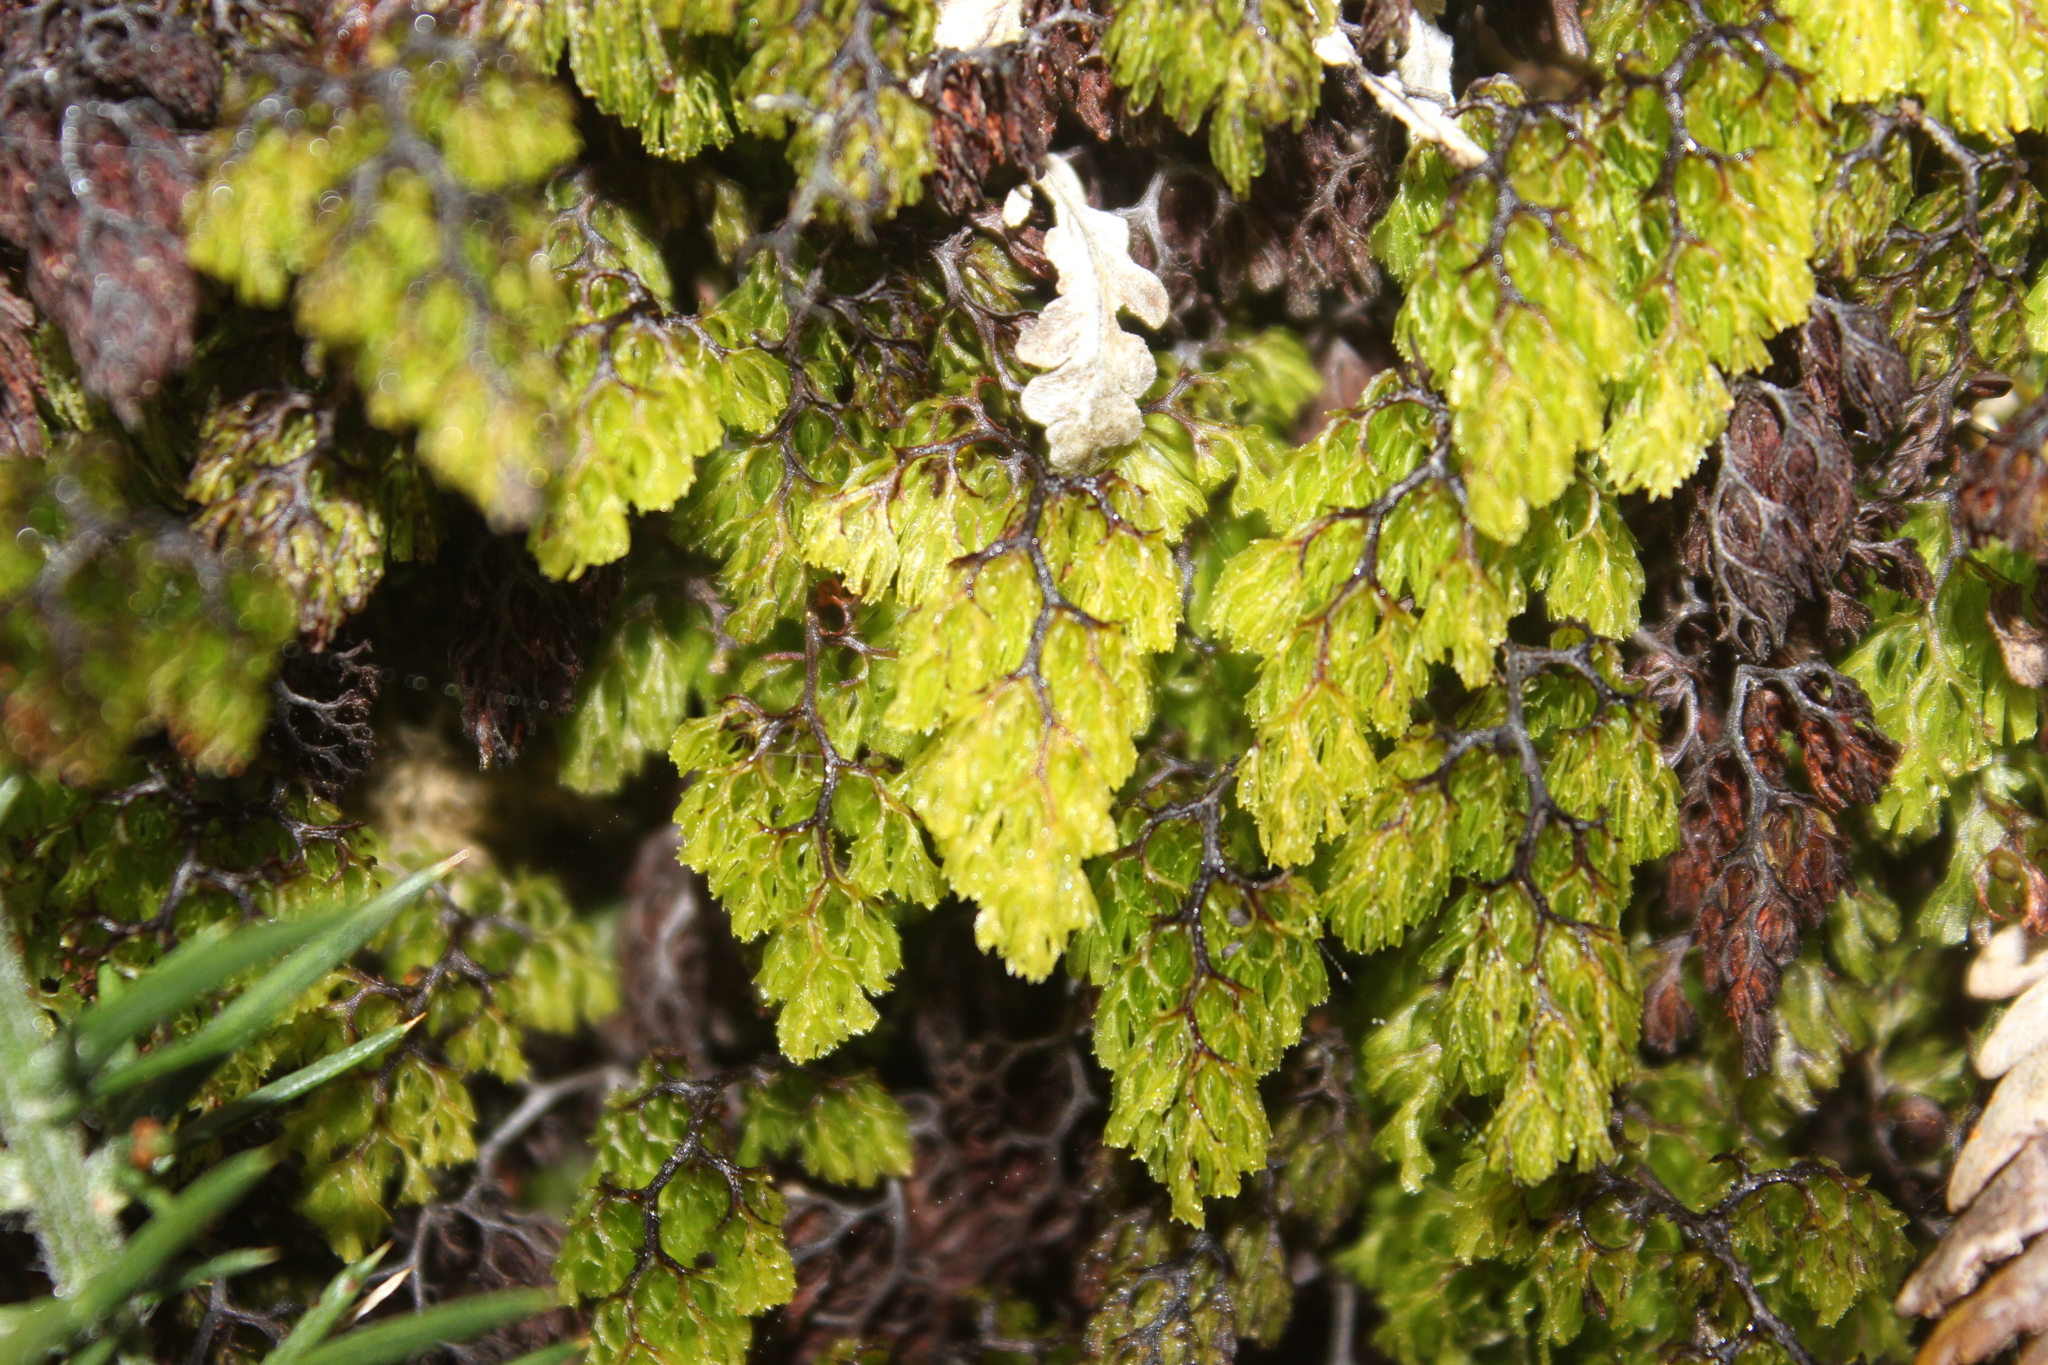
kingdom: Plantae
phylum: Tracheophyta
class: Polypodiopsida
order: Hymenophyllales
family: Hymenophyllaceae
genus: Hymenophyllum
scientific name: Hymenophyllum multifidum
